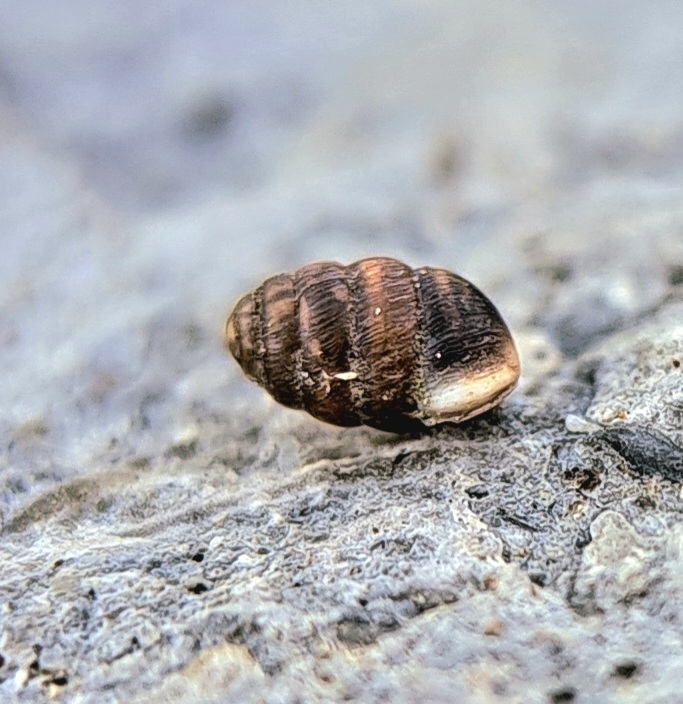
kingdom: Animalia
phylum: Mollusca
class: Gastropoda
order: Stylommatophora
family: Pupillidae
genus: Pupilla
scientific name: Pupilla muscorum
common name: Moss chrysalis snail
